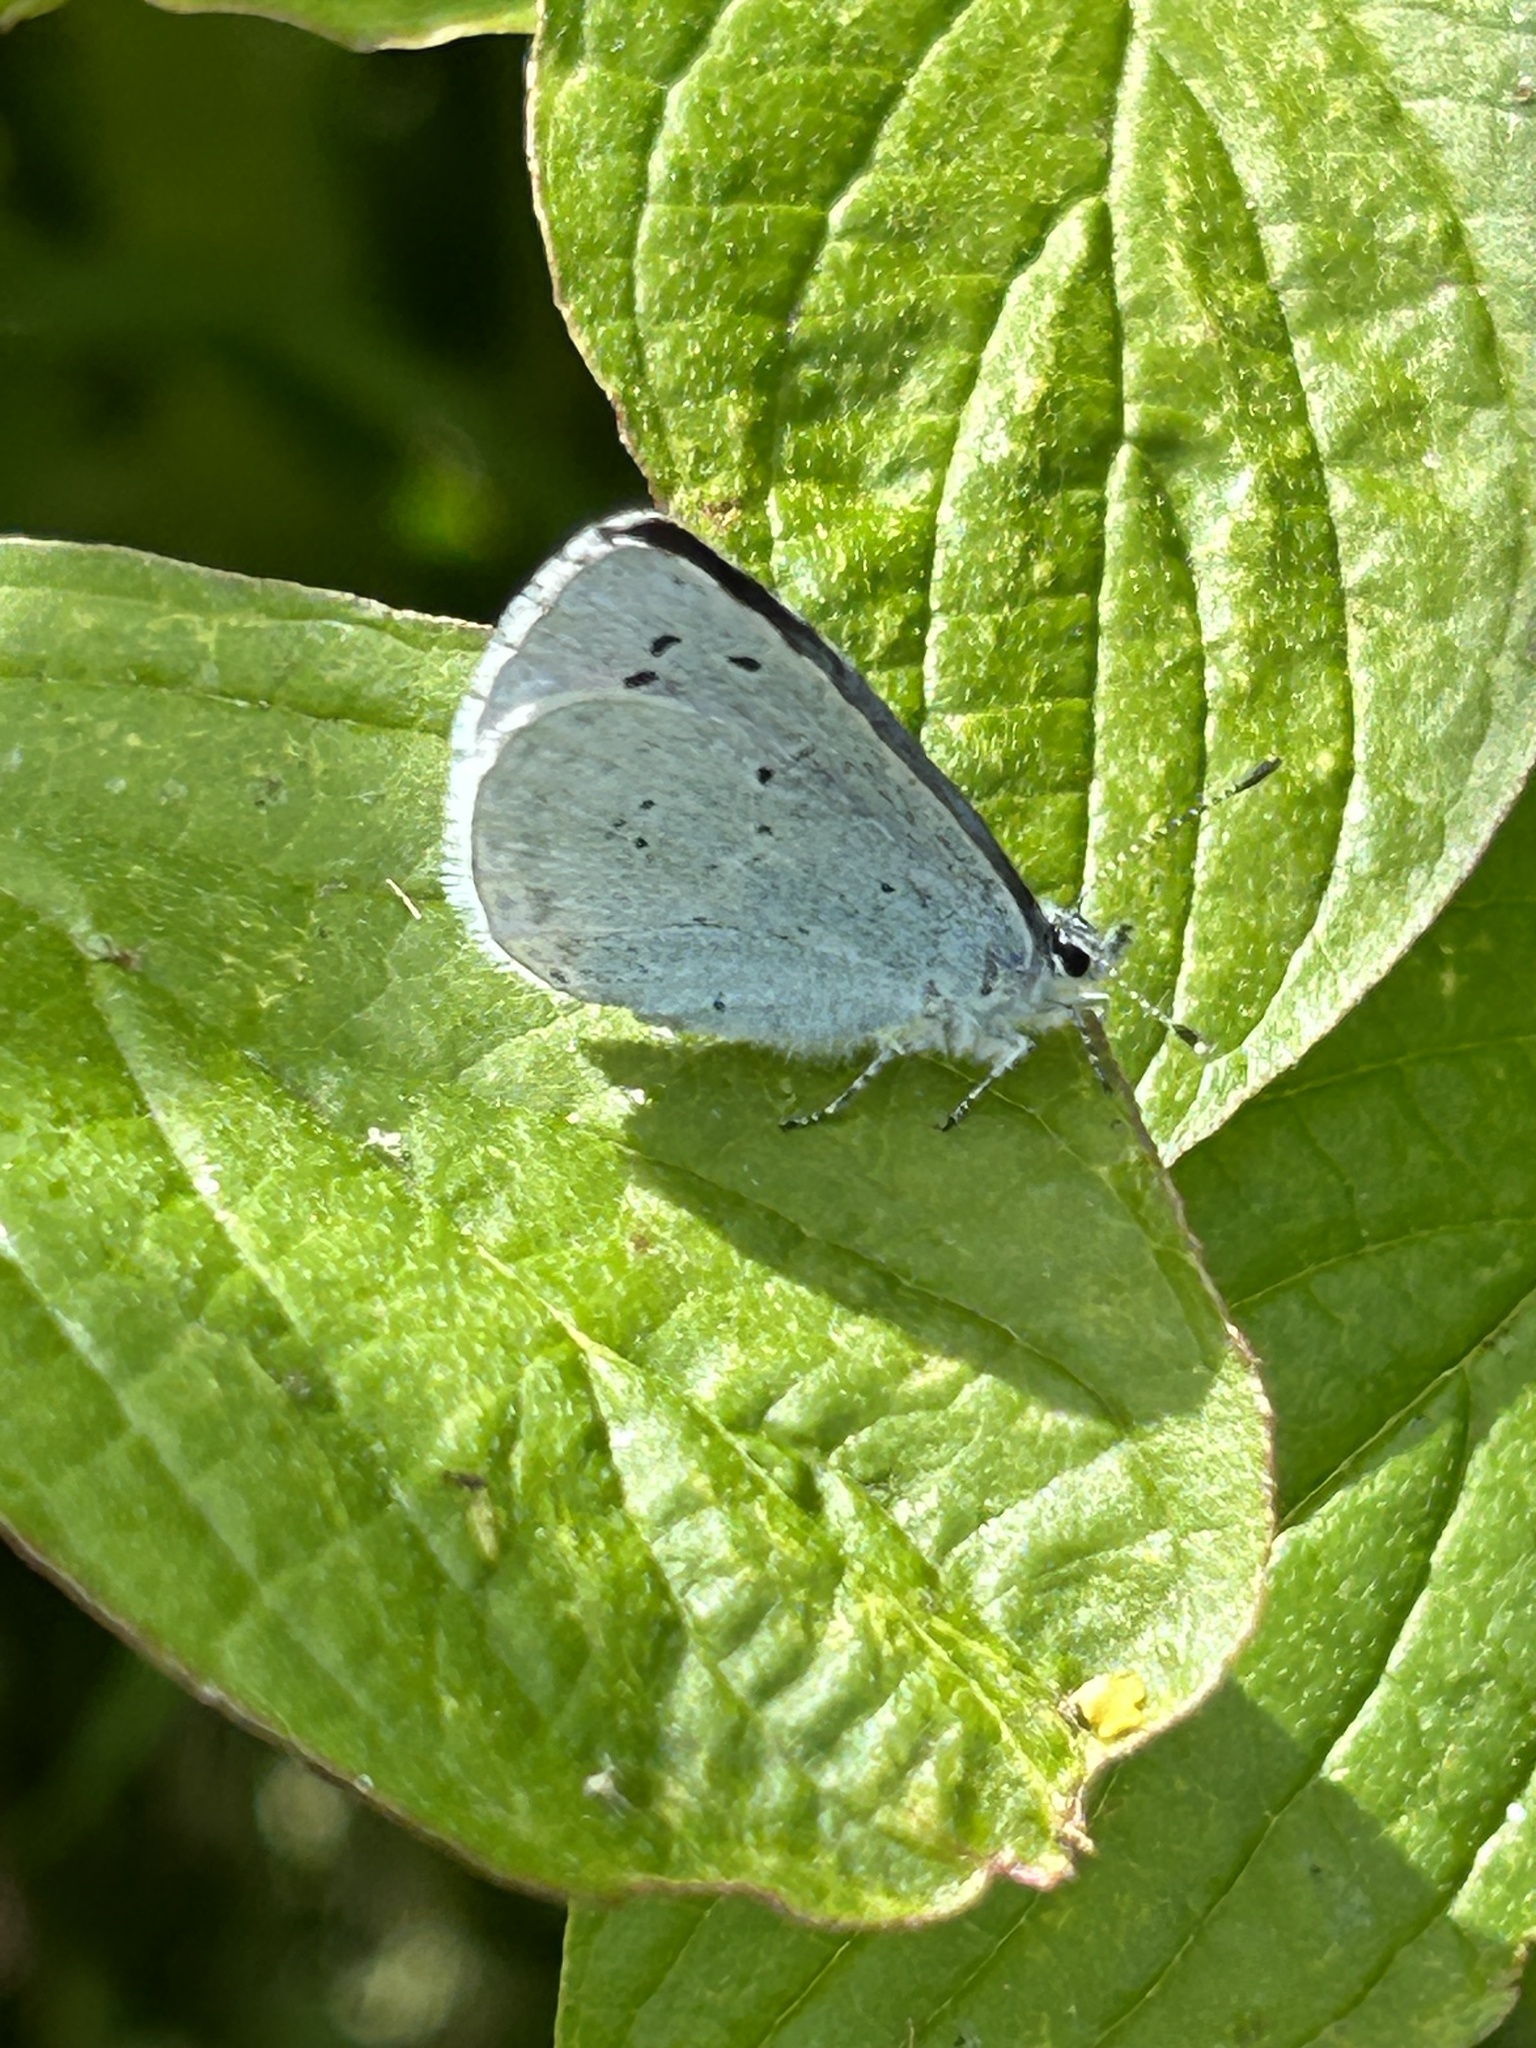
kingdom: Animalia
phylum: Arthropoda
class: Insecta
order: Lepidoptera
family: Lycaenidae
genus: Celastrina
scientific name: Celastrina argiolus
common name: Holly blue
